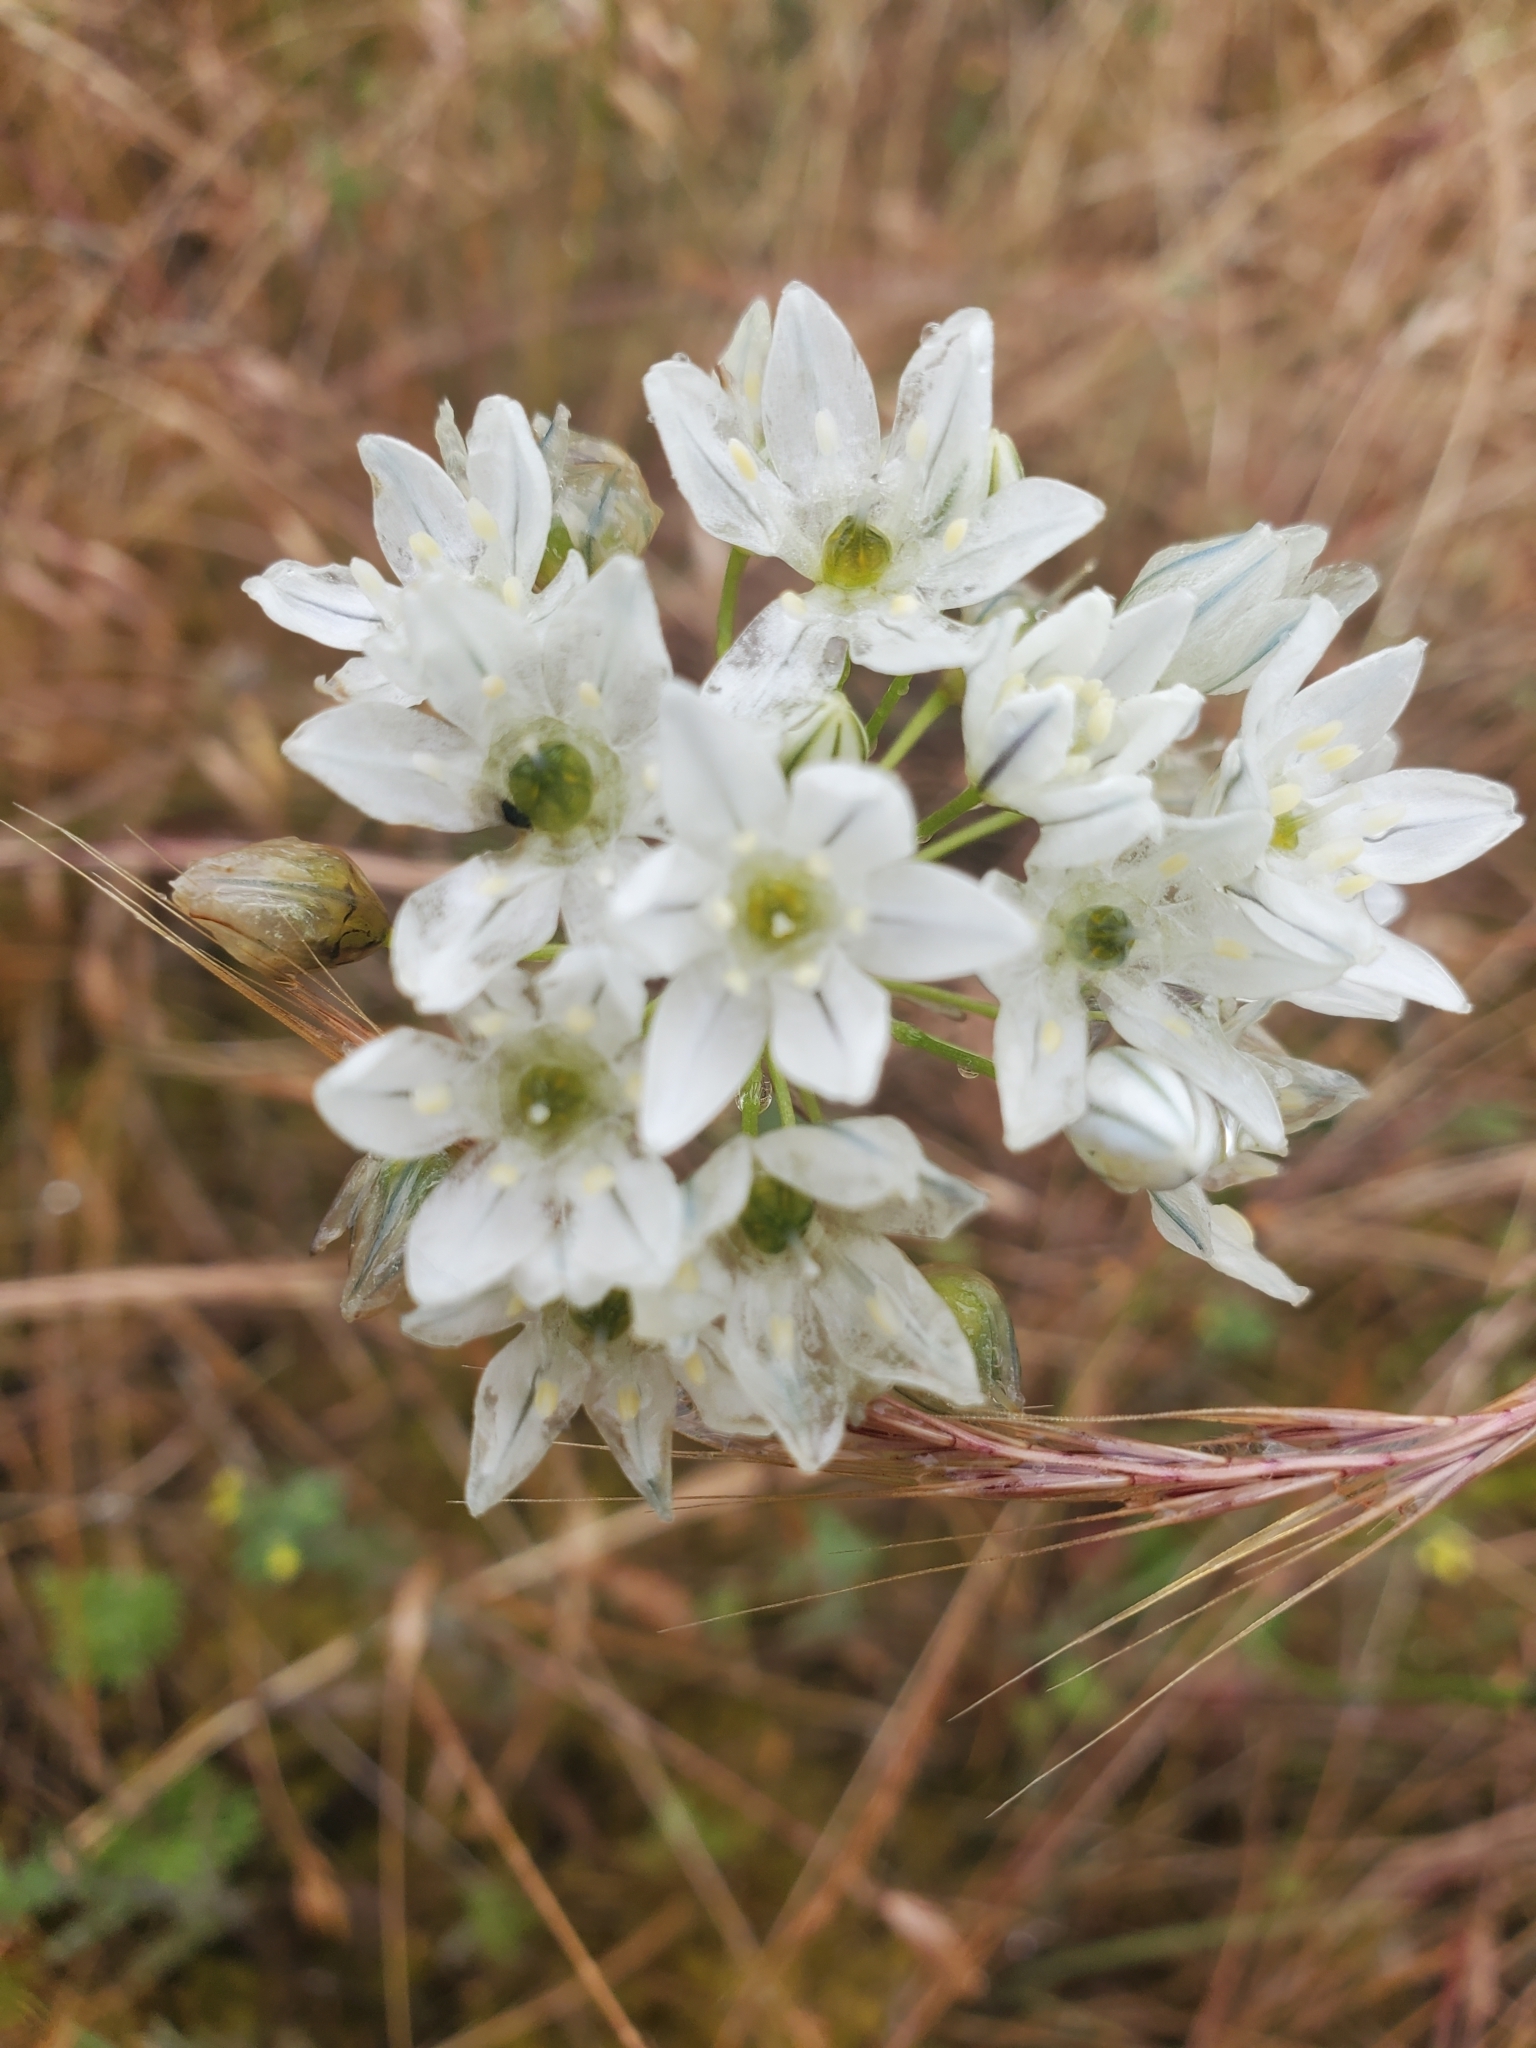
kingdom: Plantae
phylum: Tracheophyta
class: Liliopsida
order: Asparagales
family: Asparagaceae
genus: Triteleia
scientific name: Triteleia hyacinthina
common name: White brodiaea
